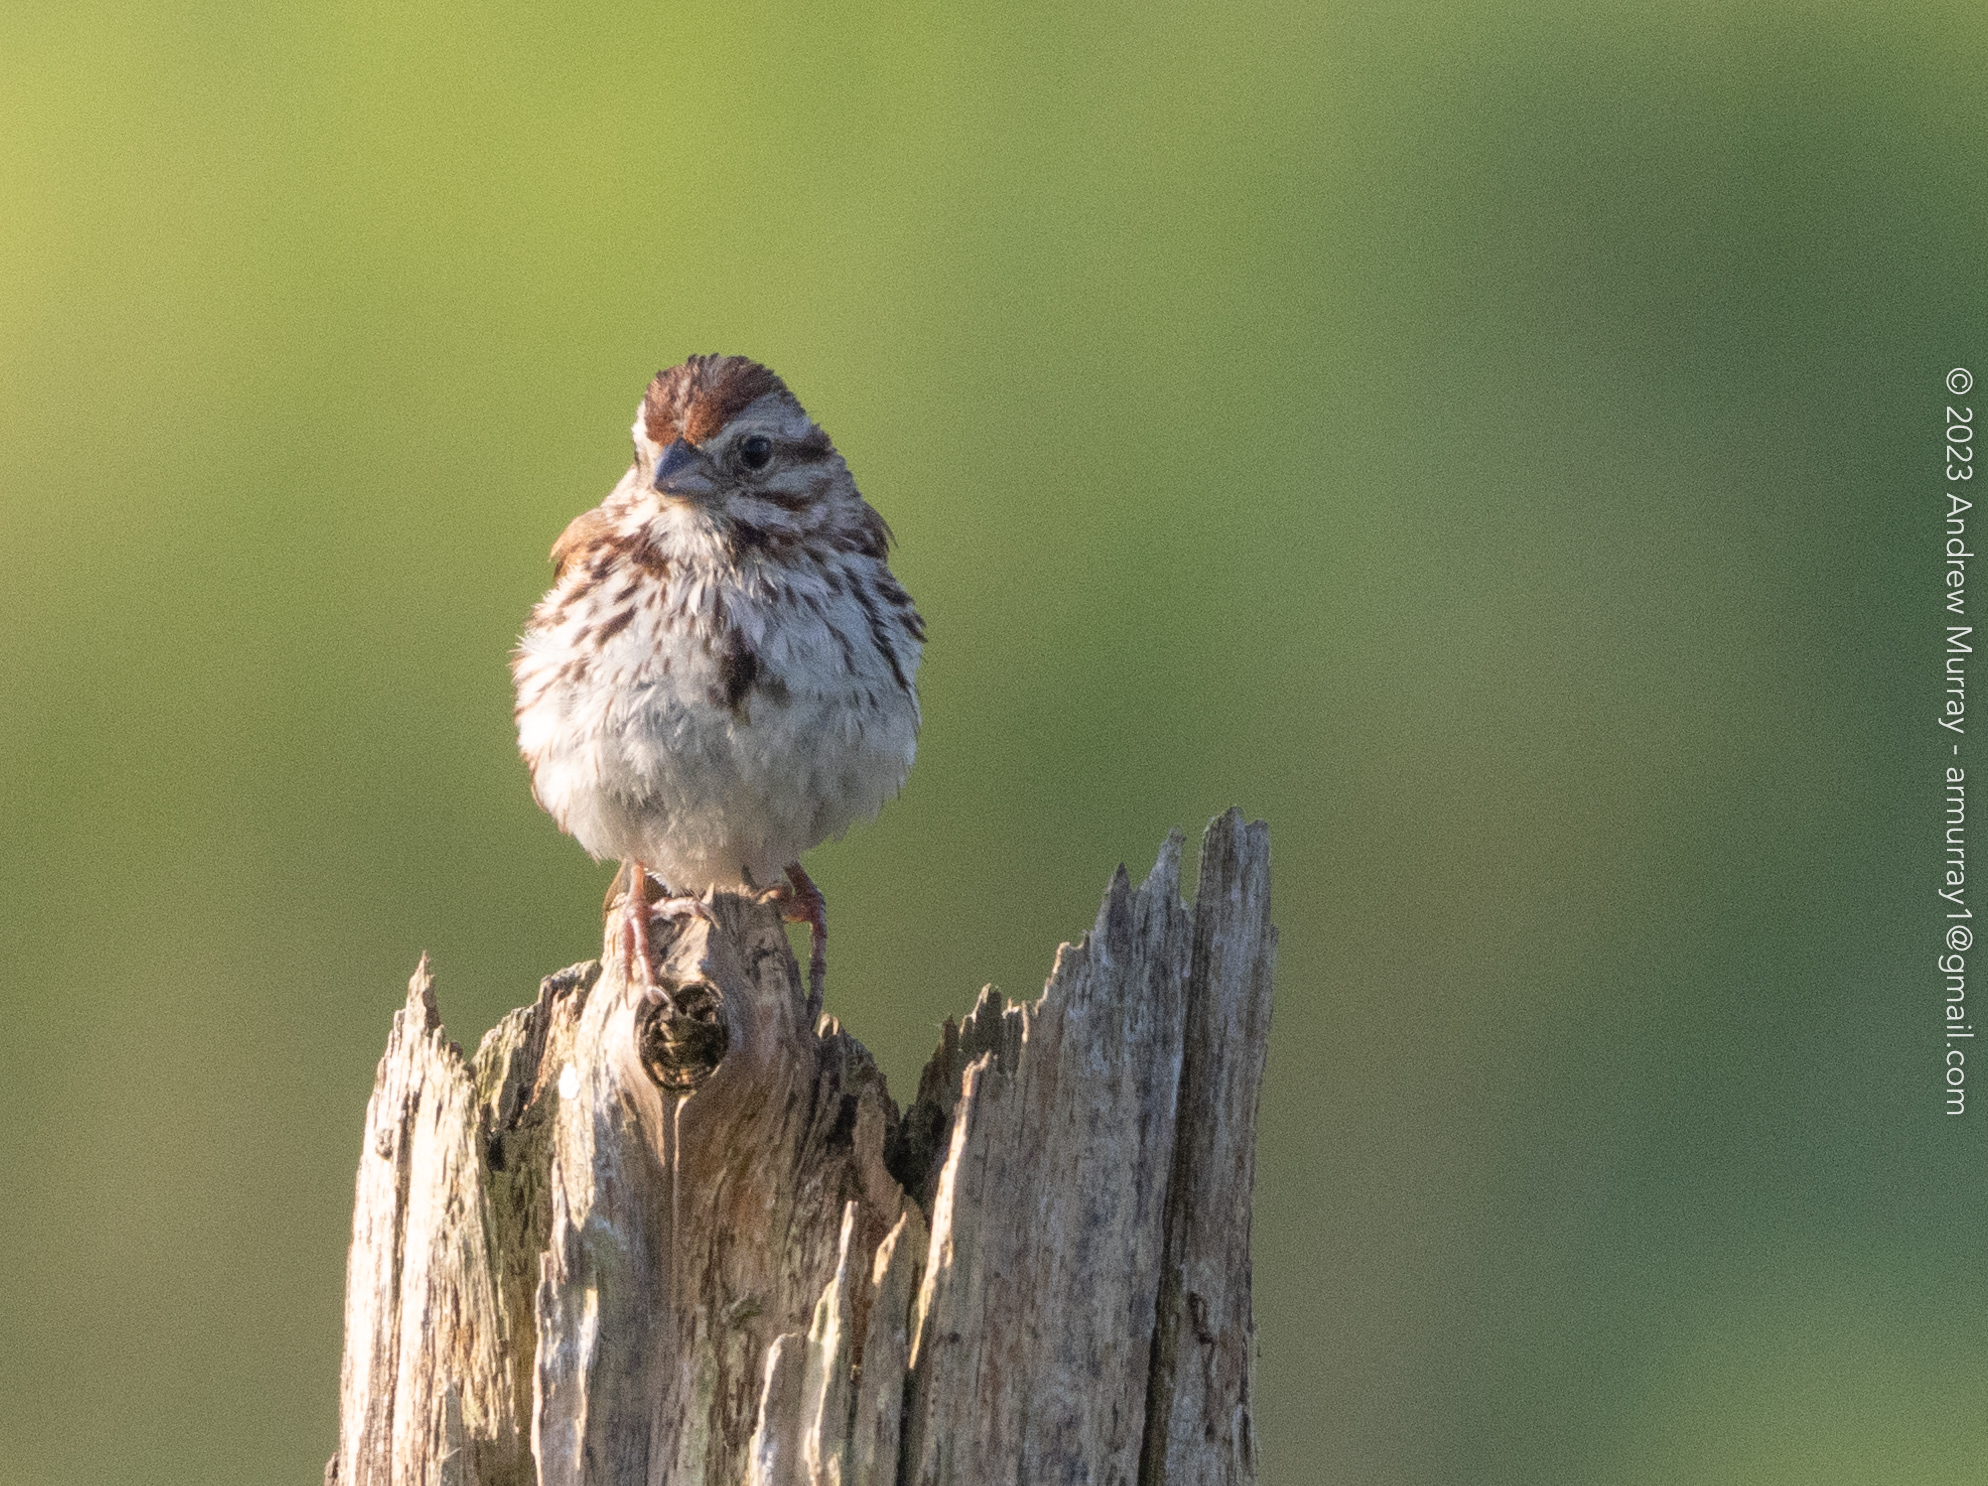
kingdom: Animalia
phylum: Chordata
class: Aves
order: Passeriformes
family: Passerellidae
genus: Melospiza
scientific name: Melospiza melodia
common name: Song sparrow
